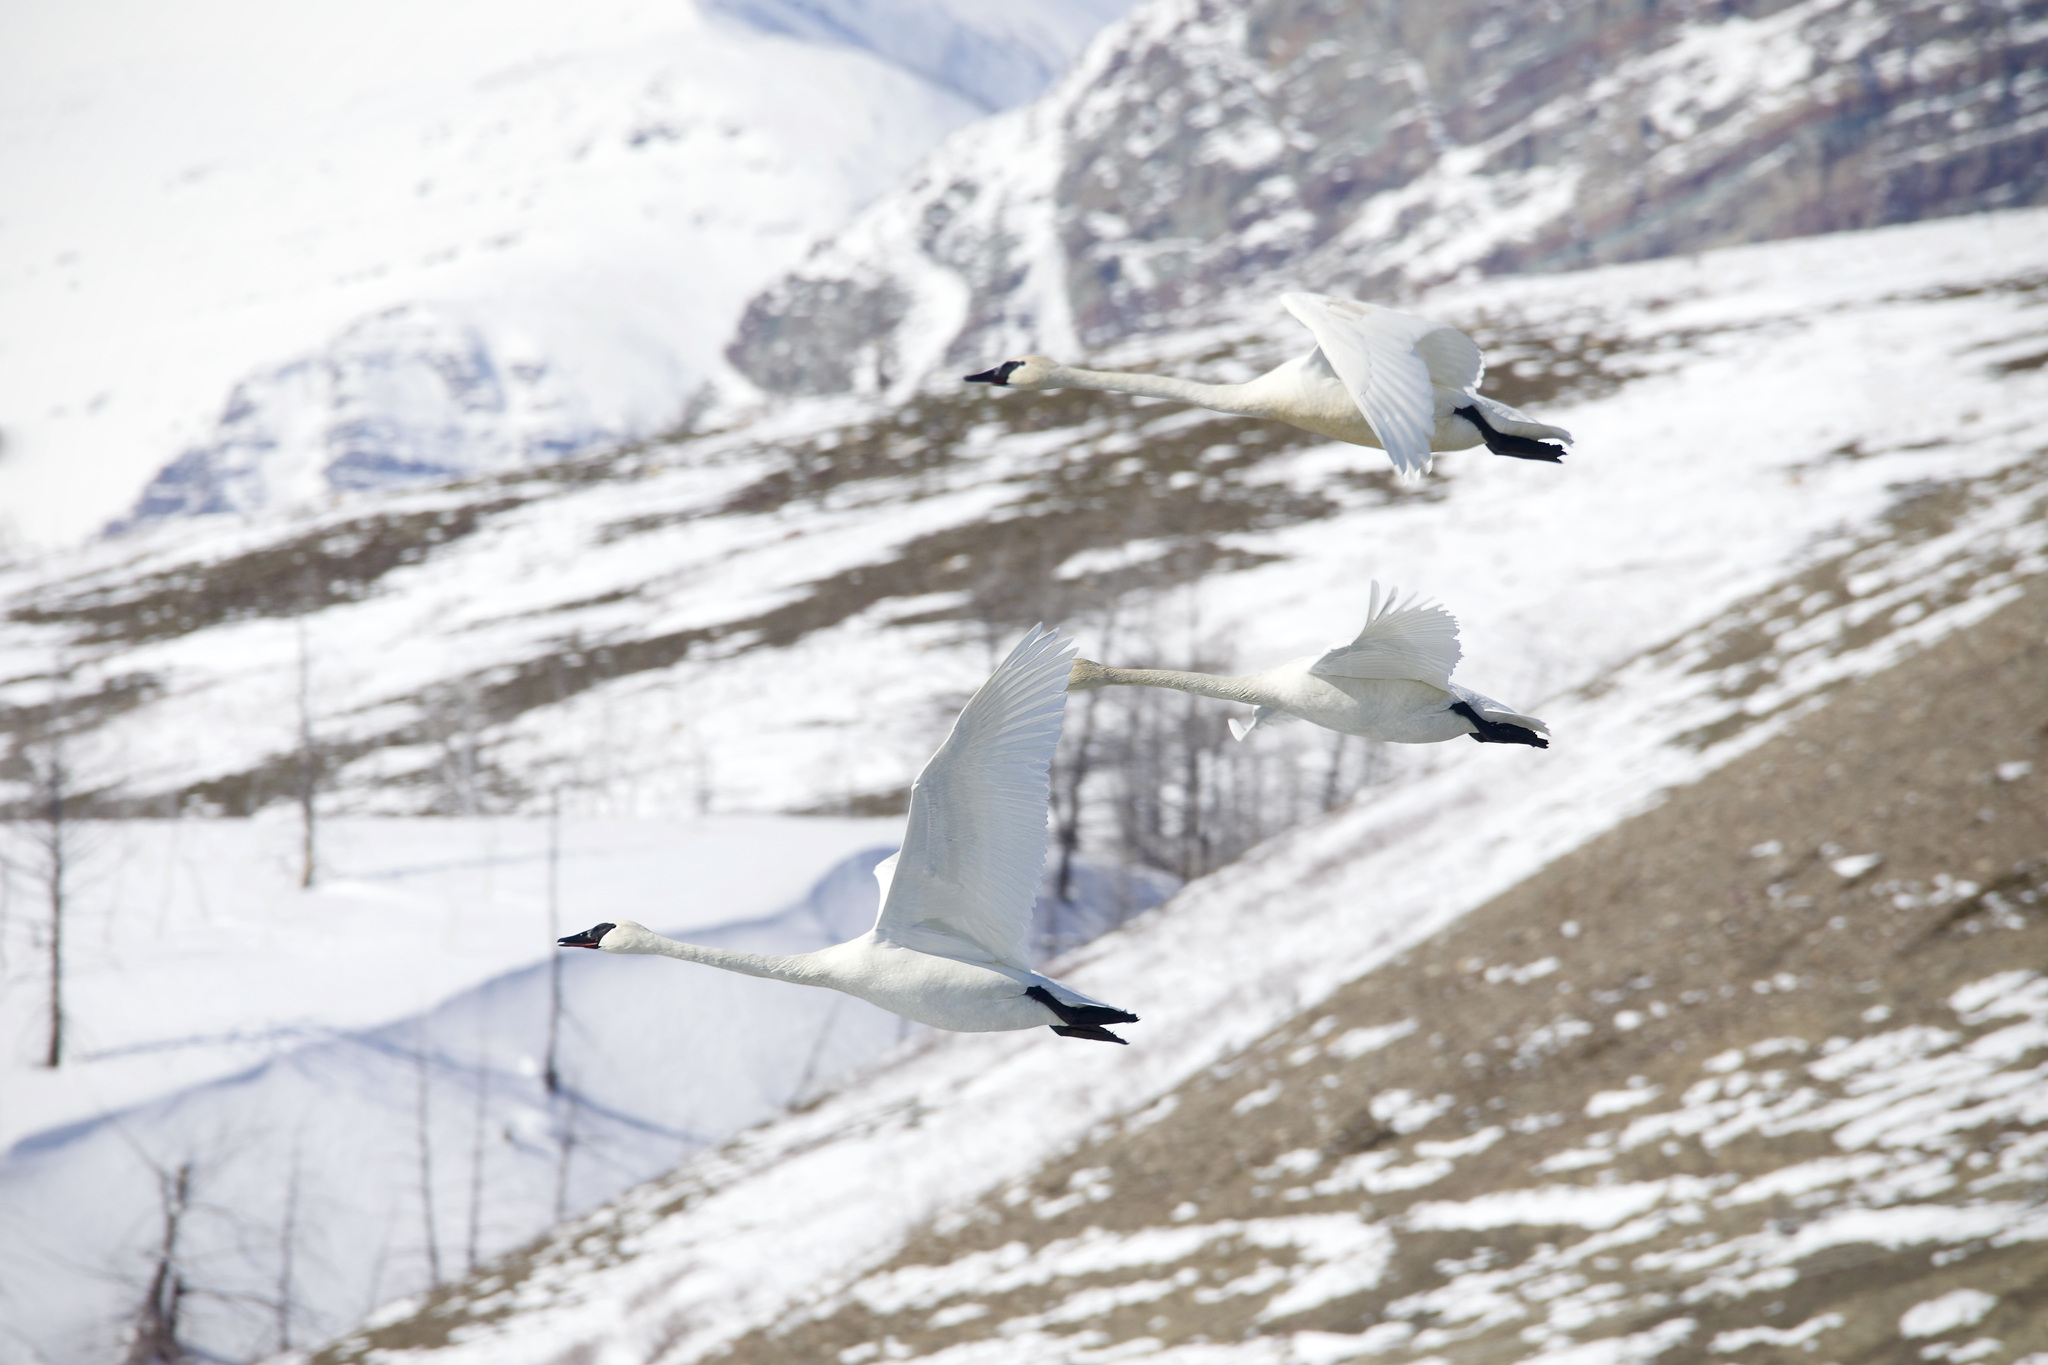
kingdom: Animalia
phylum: Chordata
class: Aves
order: Anseriformes
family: Anatidae
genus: Cygnus
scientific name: Cygnus buccinator
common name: Trumpeter swan
